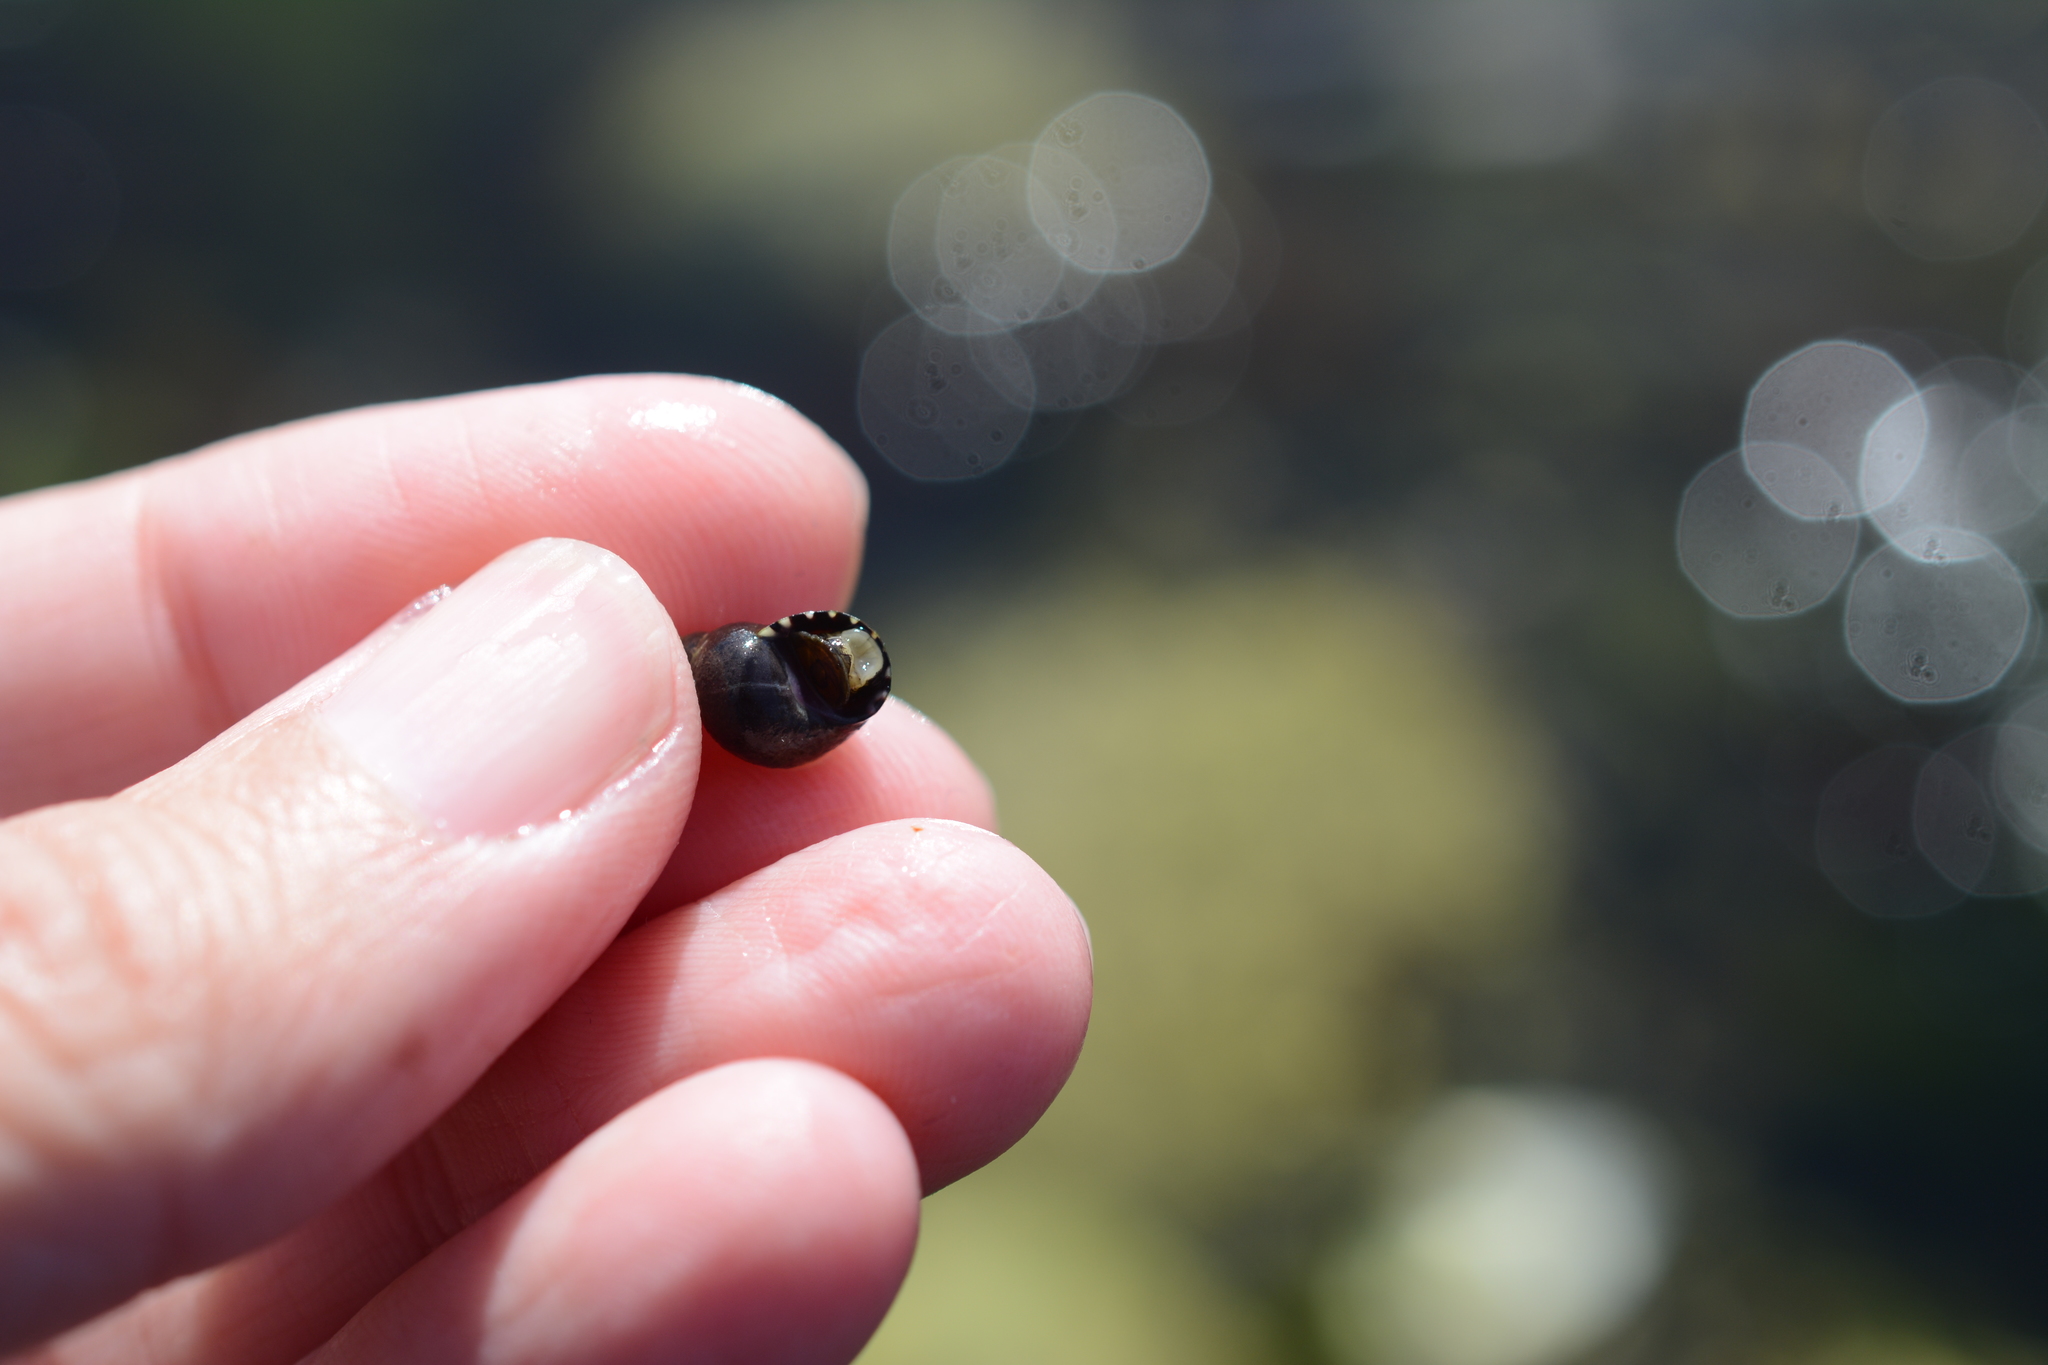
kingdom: Animalia
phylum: Mollusca
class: Gastropoda
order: Littorinimorpha
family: Littorinidae
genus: Littorina
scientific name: Littorina scutulata
